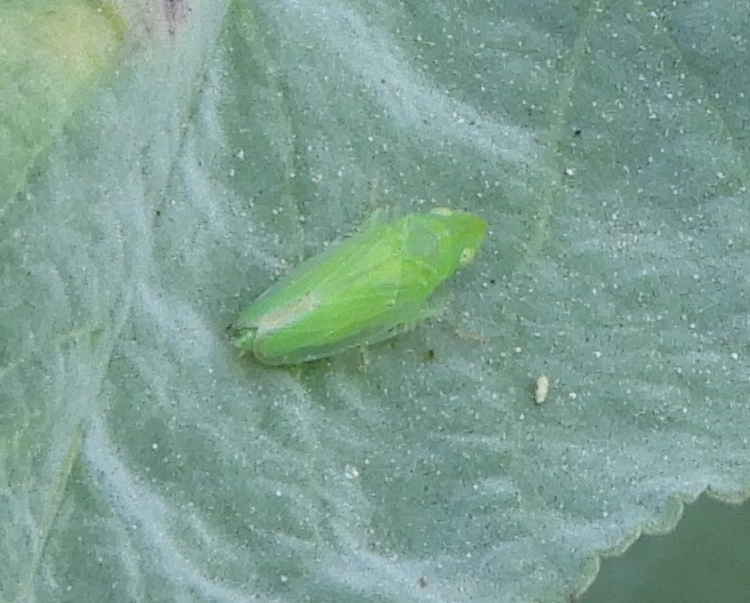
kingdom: Animalia
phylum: Arthropoda
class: Insecta
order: Hemiptera
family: Cicadellidae
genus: Neocoelidia
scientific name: Neocoelidia
